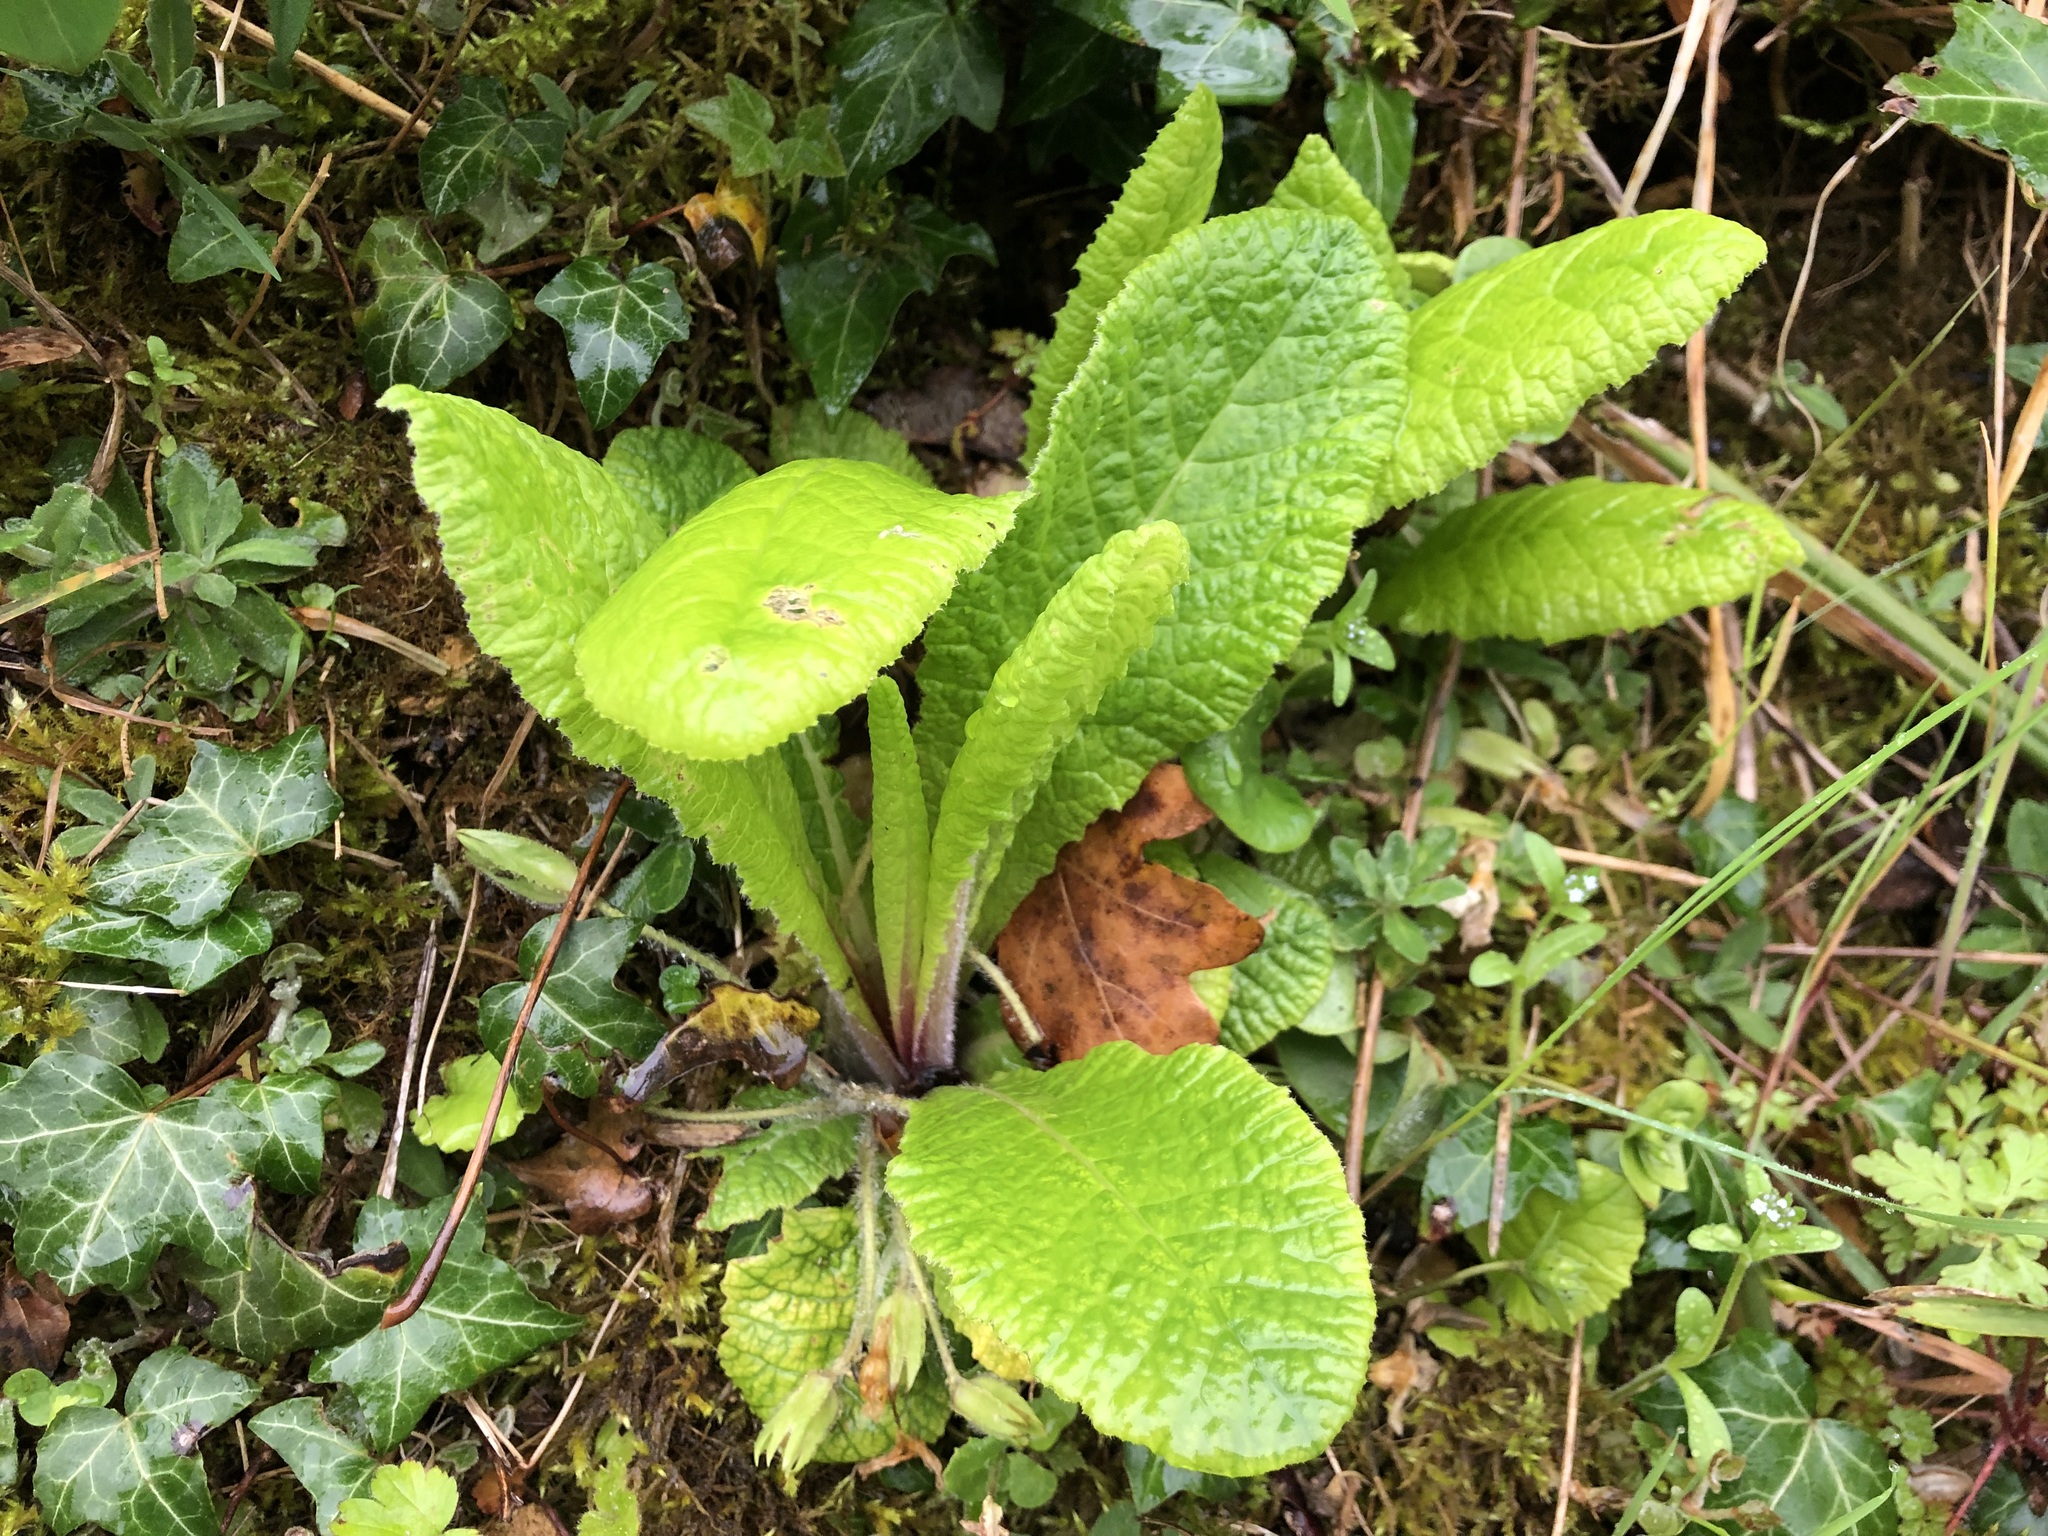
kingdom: Plantae
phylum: Tracheophyta
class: Magnoliopsida
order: Ericales
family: Primulaceae
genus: Primula
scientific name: Primula vulgaris
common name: Primrose
